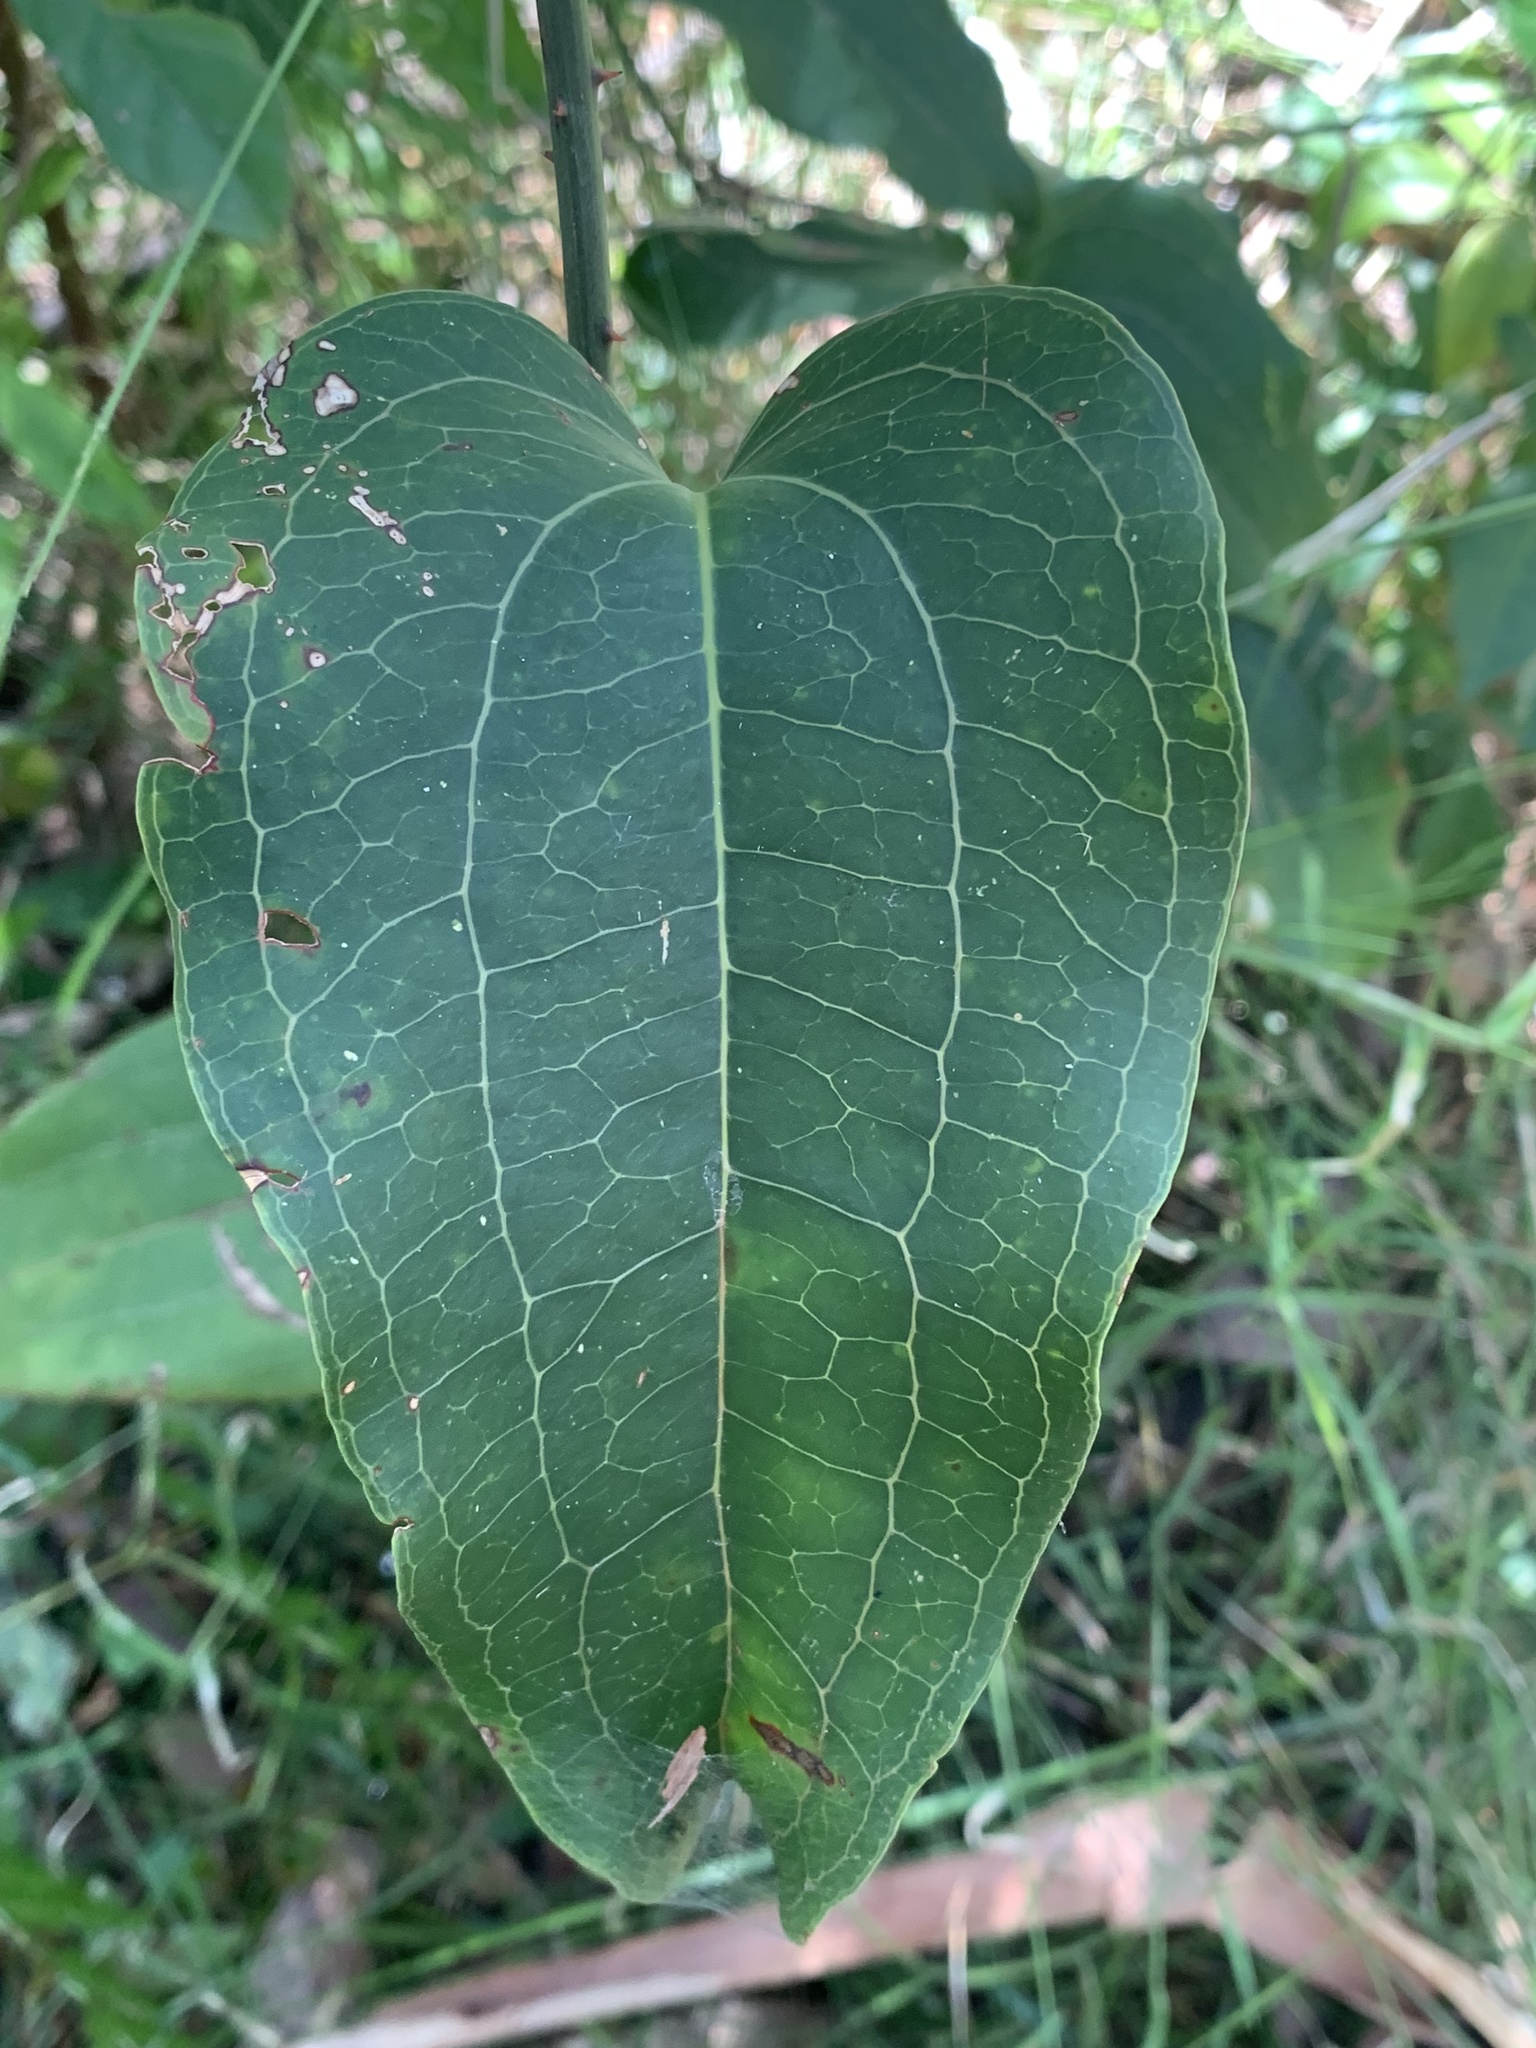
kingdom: Plantae
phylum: Tracheophyta
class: Liliopsida
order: Liliales
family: Smilacaceae
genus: Smilax
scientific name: Smilax australis
